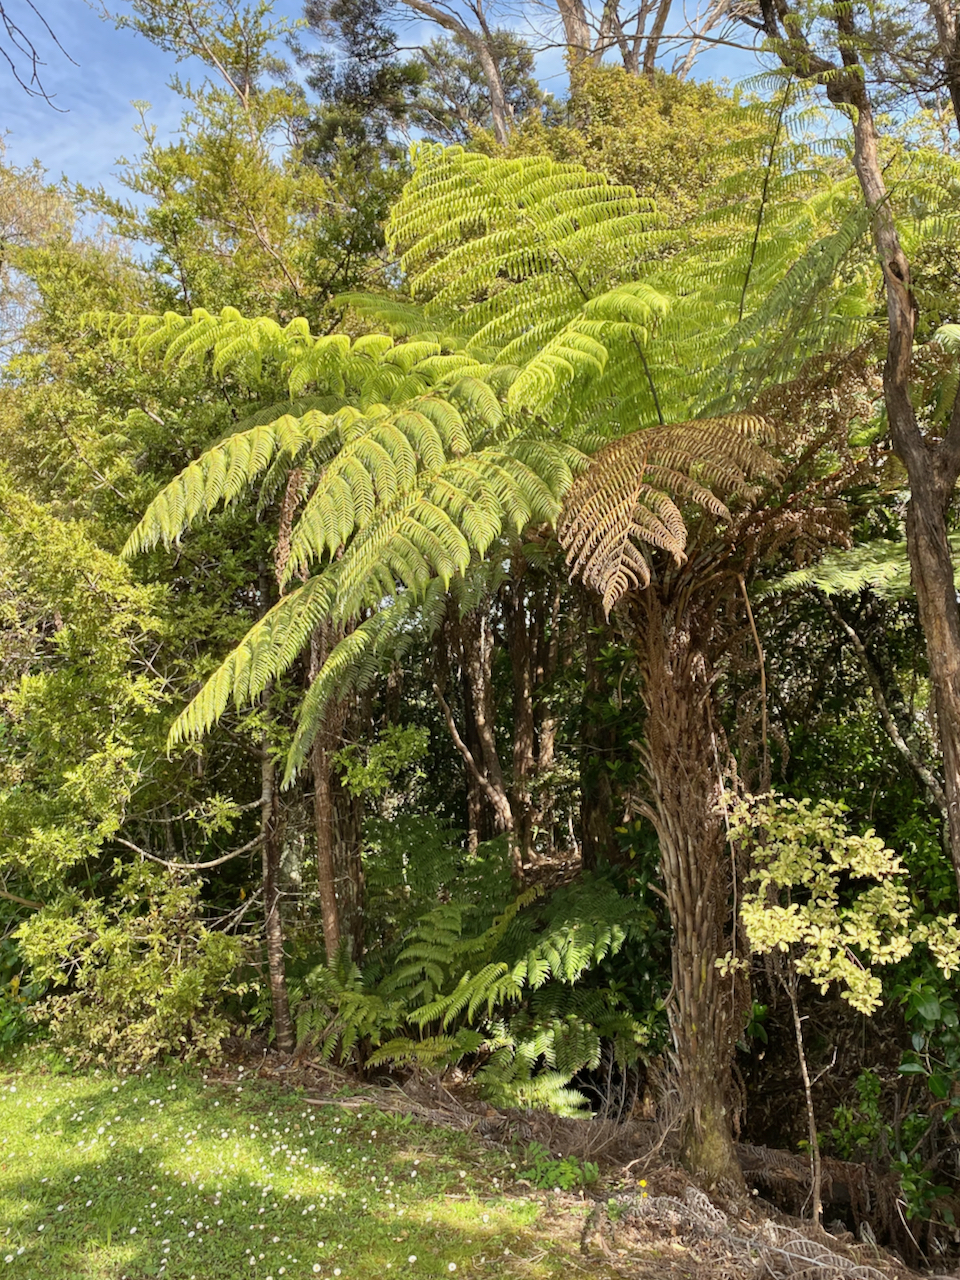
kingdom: Plantae
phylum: Tracheophyta
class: Polypodiopsida
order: Cyatheales
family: Cyatheaceae
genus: Alsophila
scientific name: Alsophila dealbata
